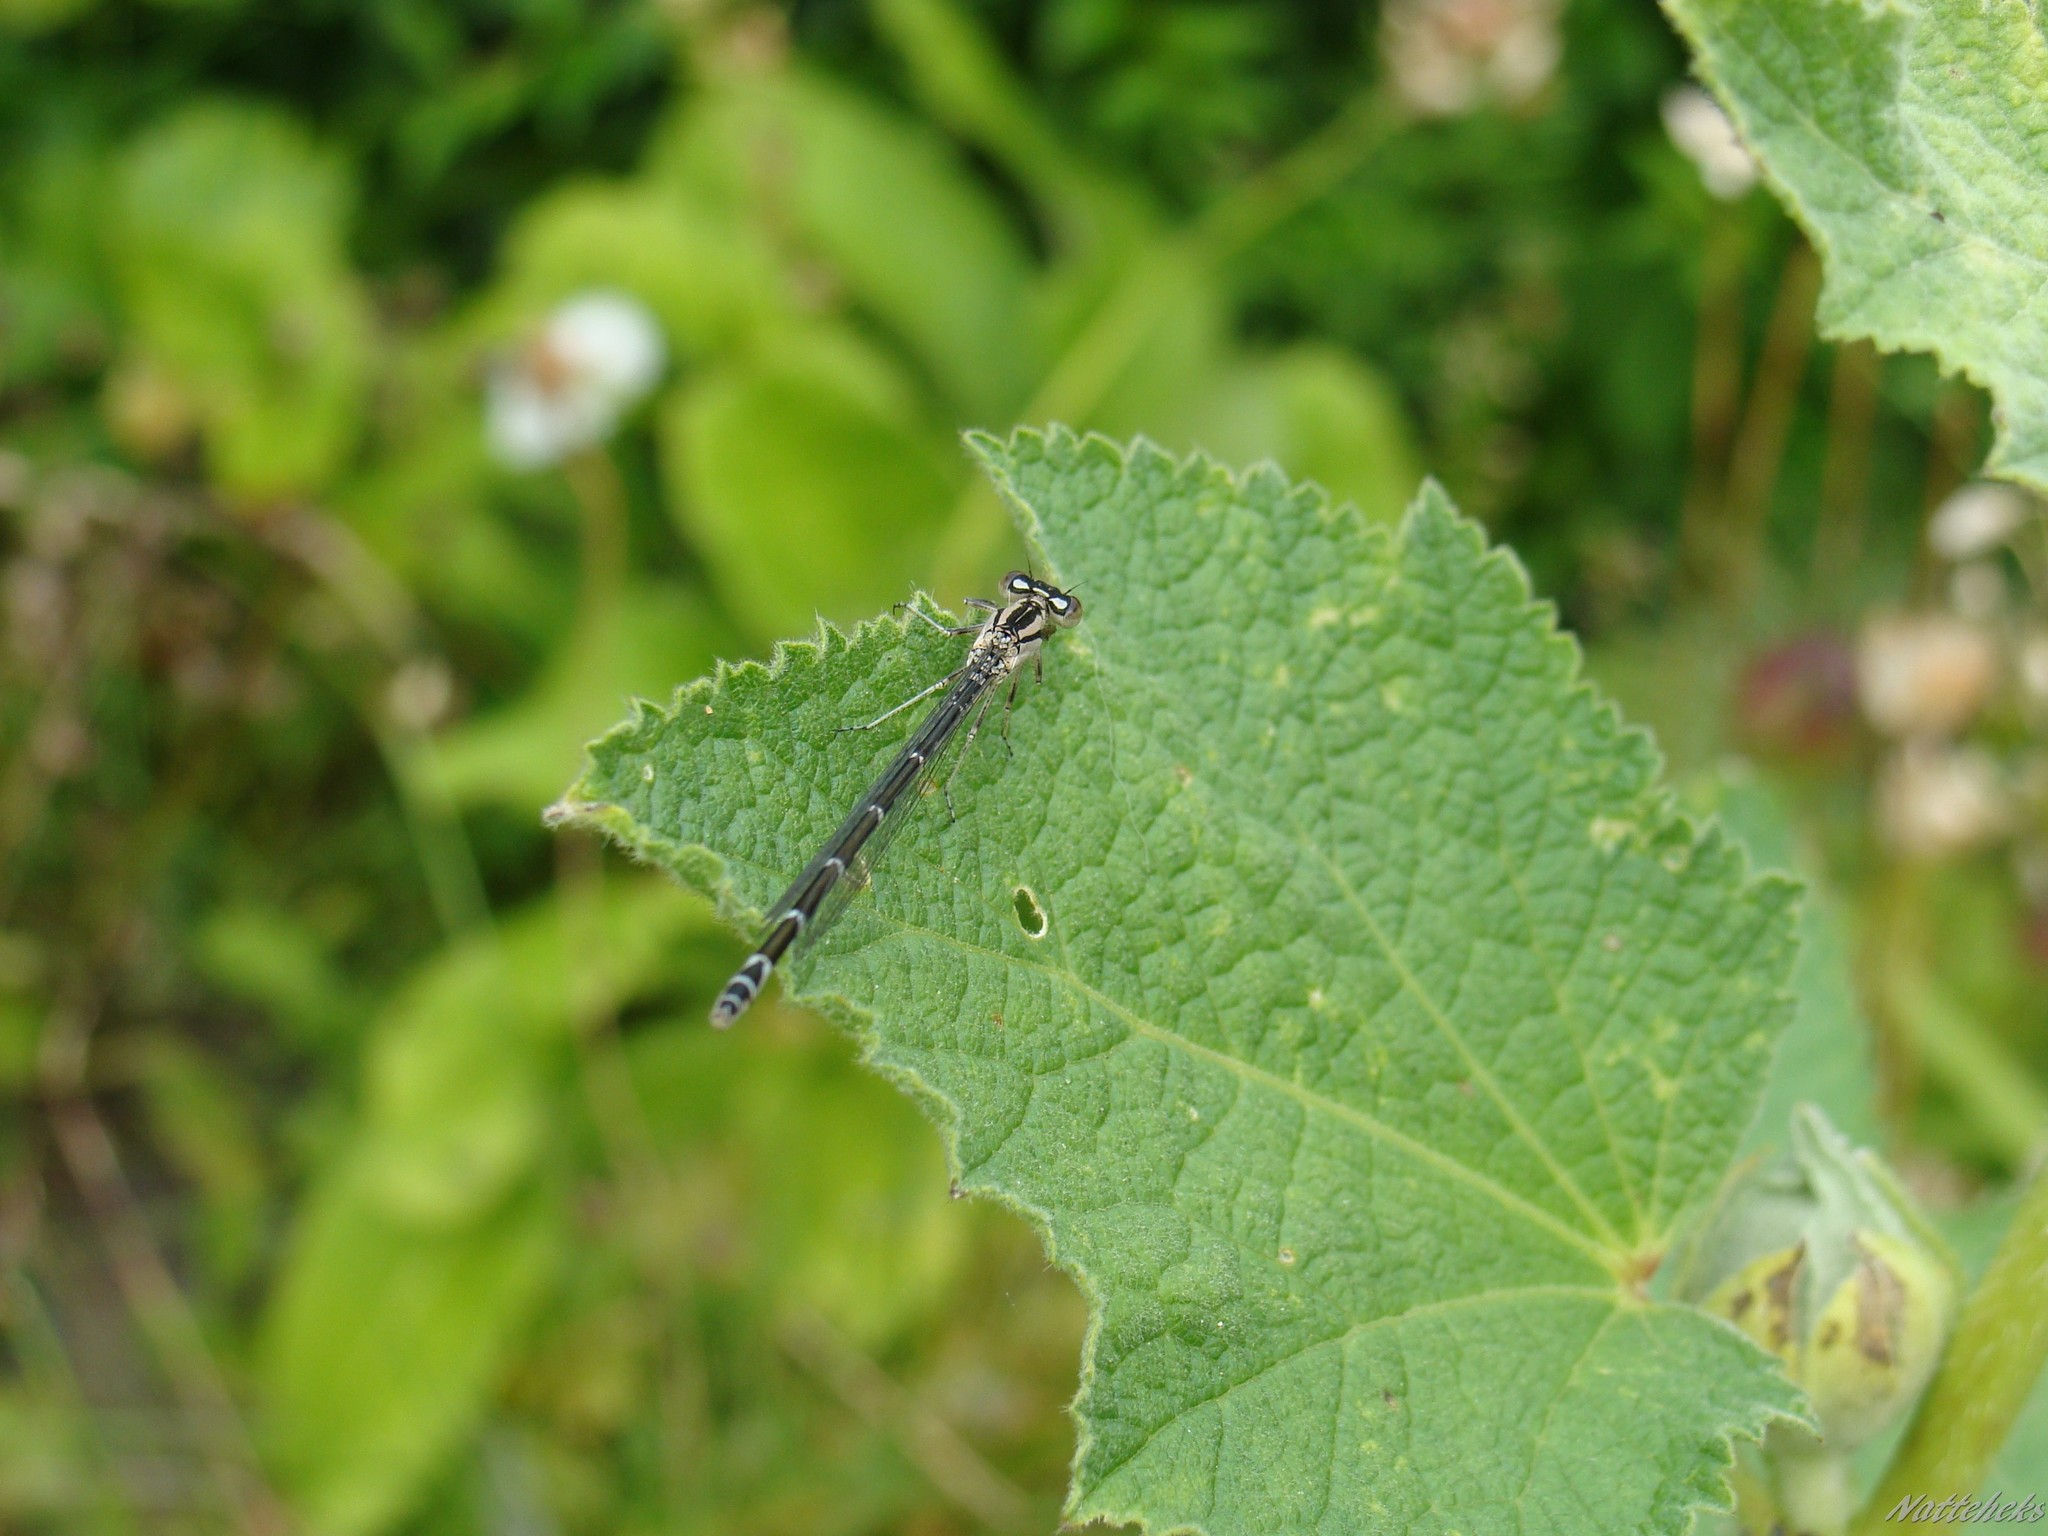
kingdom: Animalia
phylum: Arthropoda
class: Insecta
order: Odonata
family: Coenagrionidae
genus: Enallagma
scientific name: Enallagma cyathigerum
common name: Common blue damselfly
